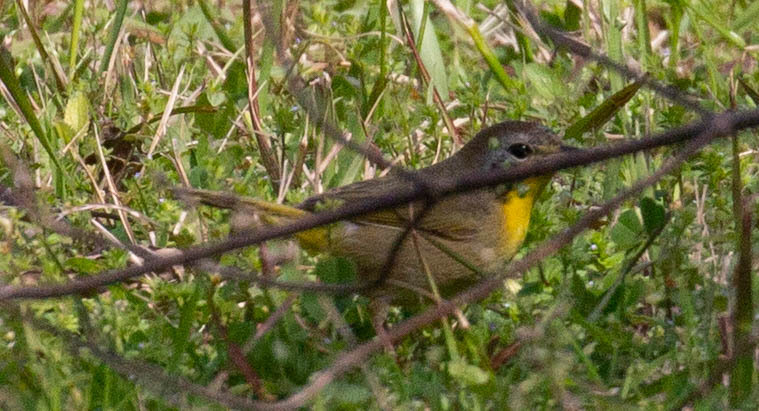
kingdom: Animalia
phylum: Chordata
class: Aves
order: Passeriformes
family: Parulidae
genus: Geothlypis
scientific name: Geothlypis trichas
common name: Common yellowthroat
